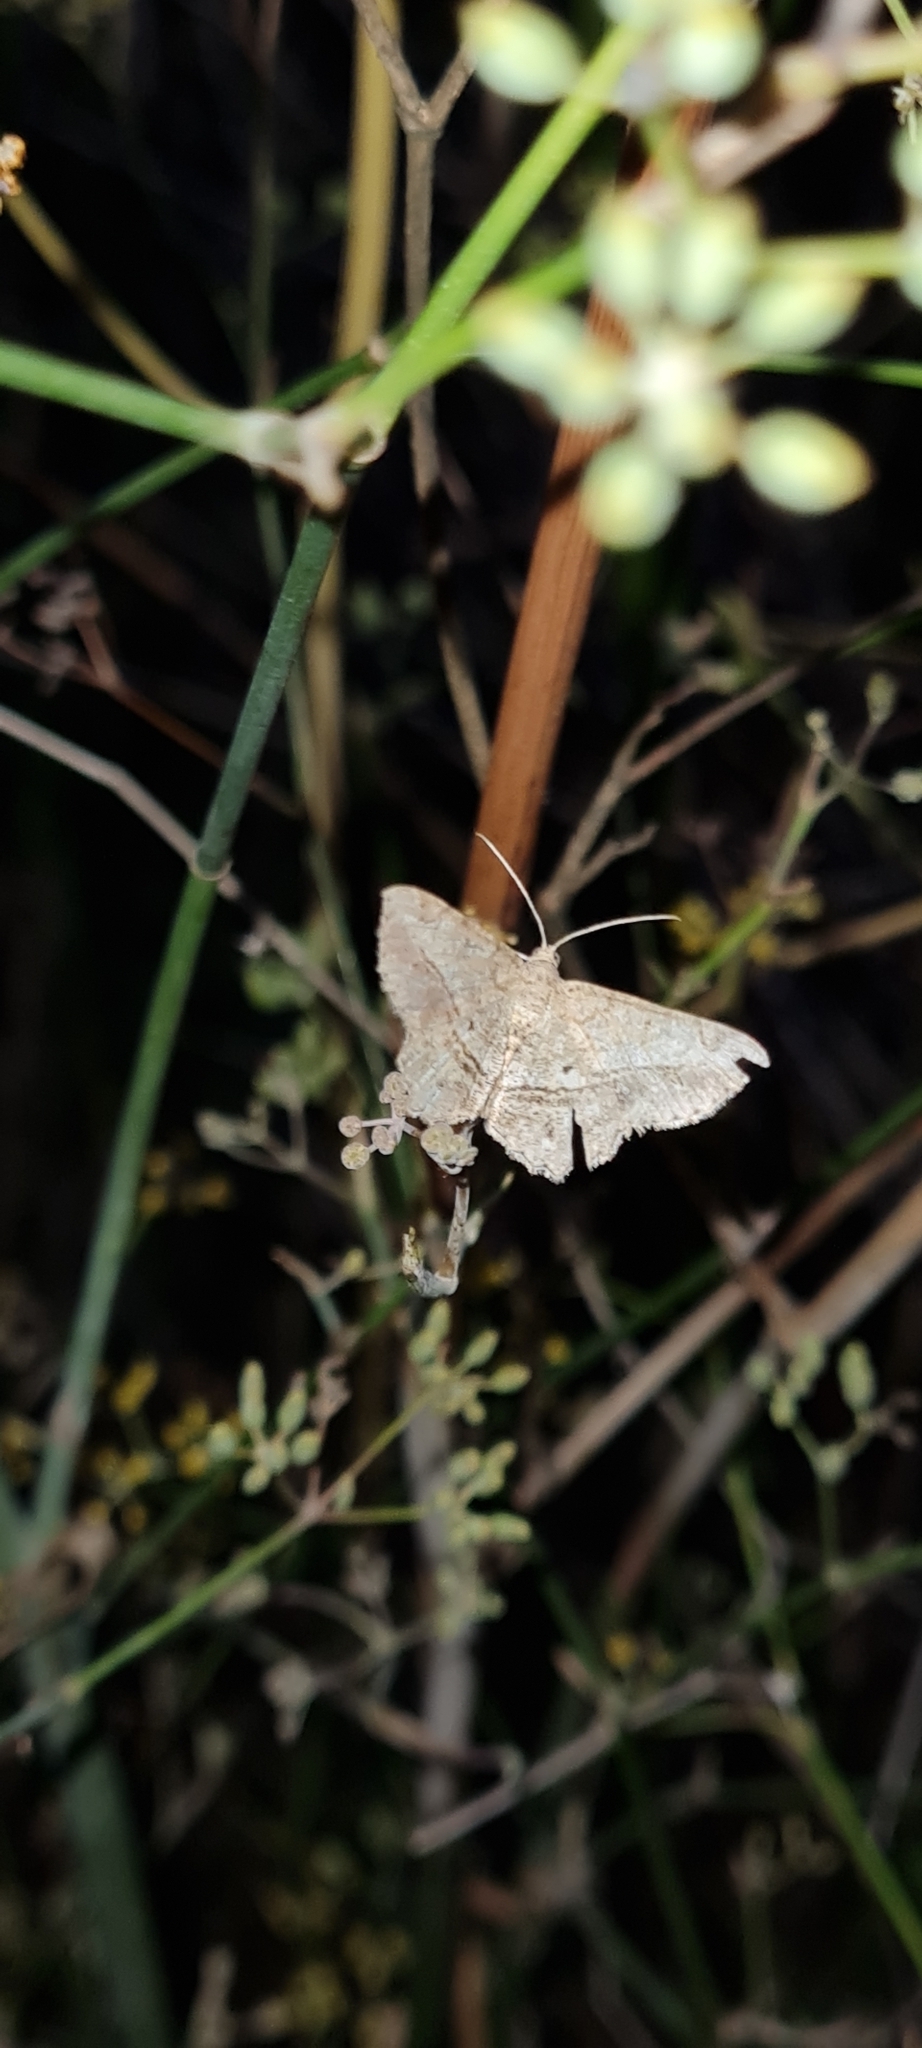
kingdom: Animalia
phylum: Arthropoda
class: Insecta
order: Lepidoptera
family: Geometridae
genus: Chiasmia
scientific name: Chiasmia aestimaria
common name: Tamarisk peacock
